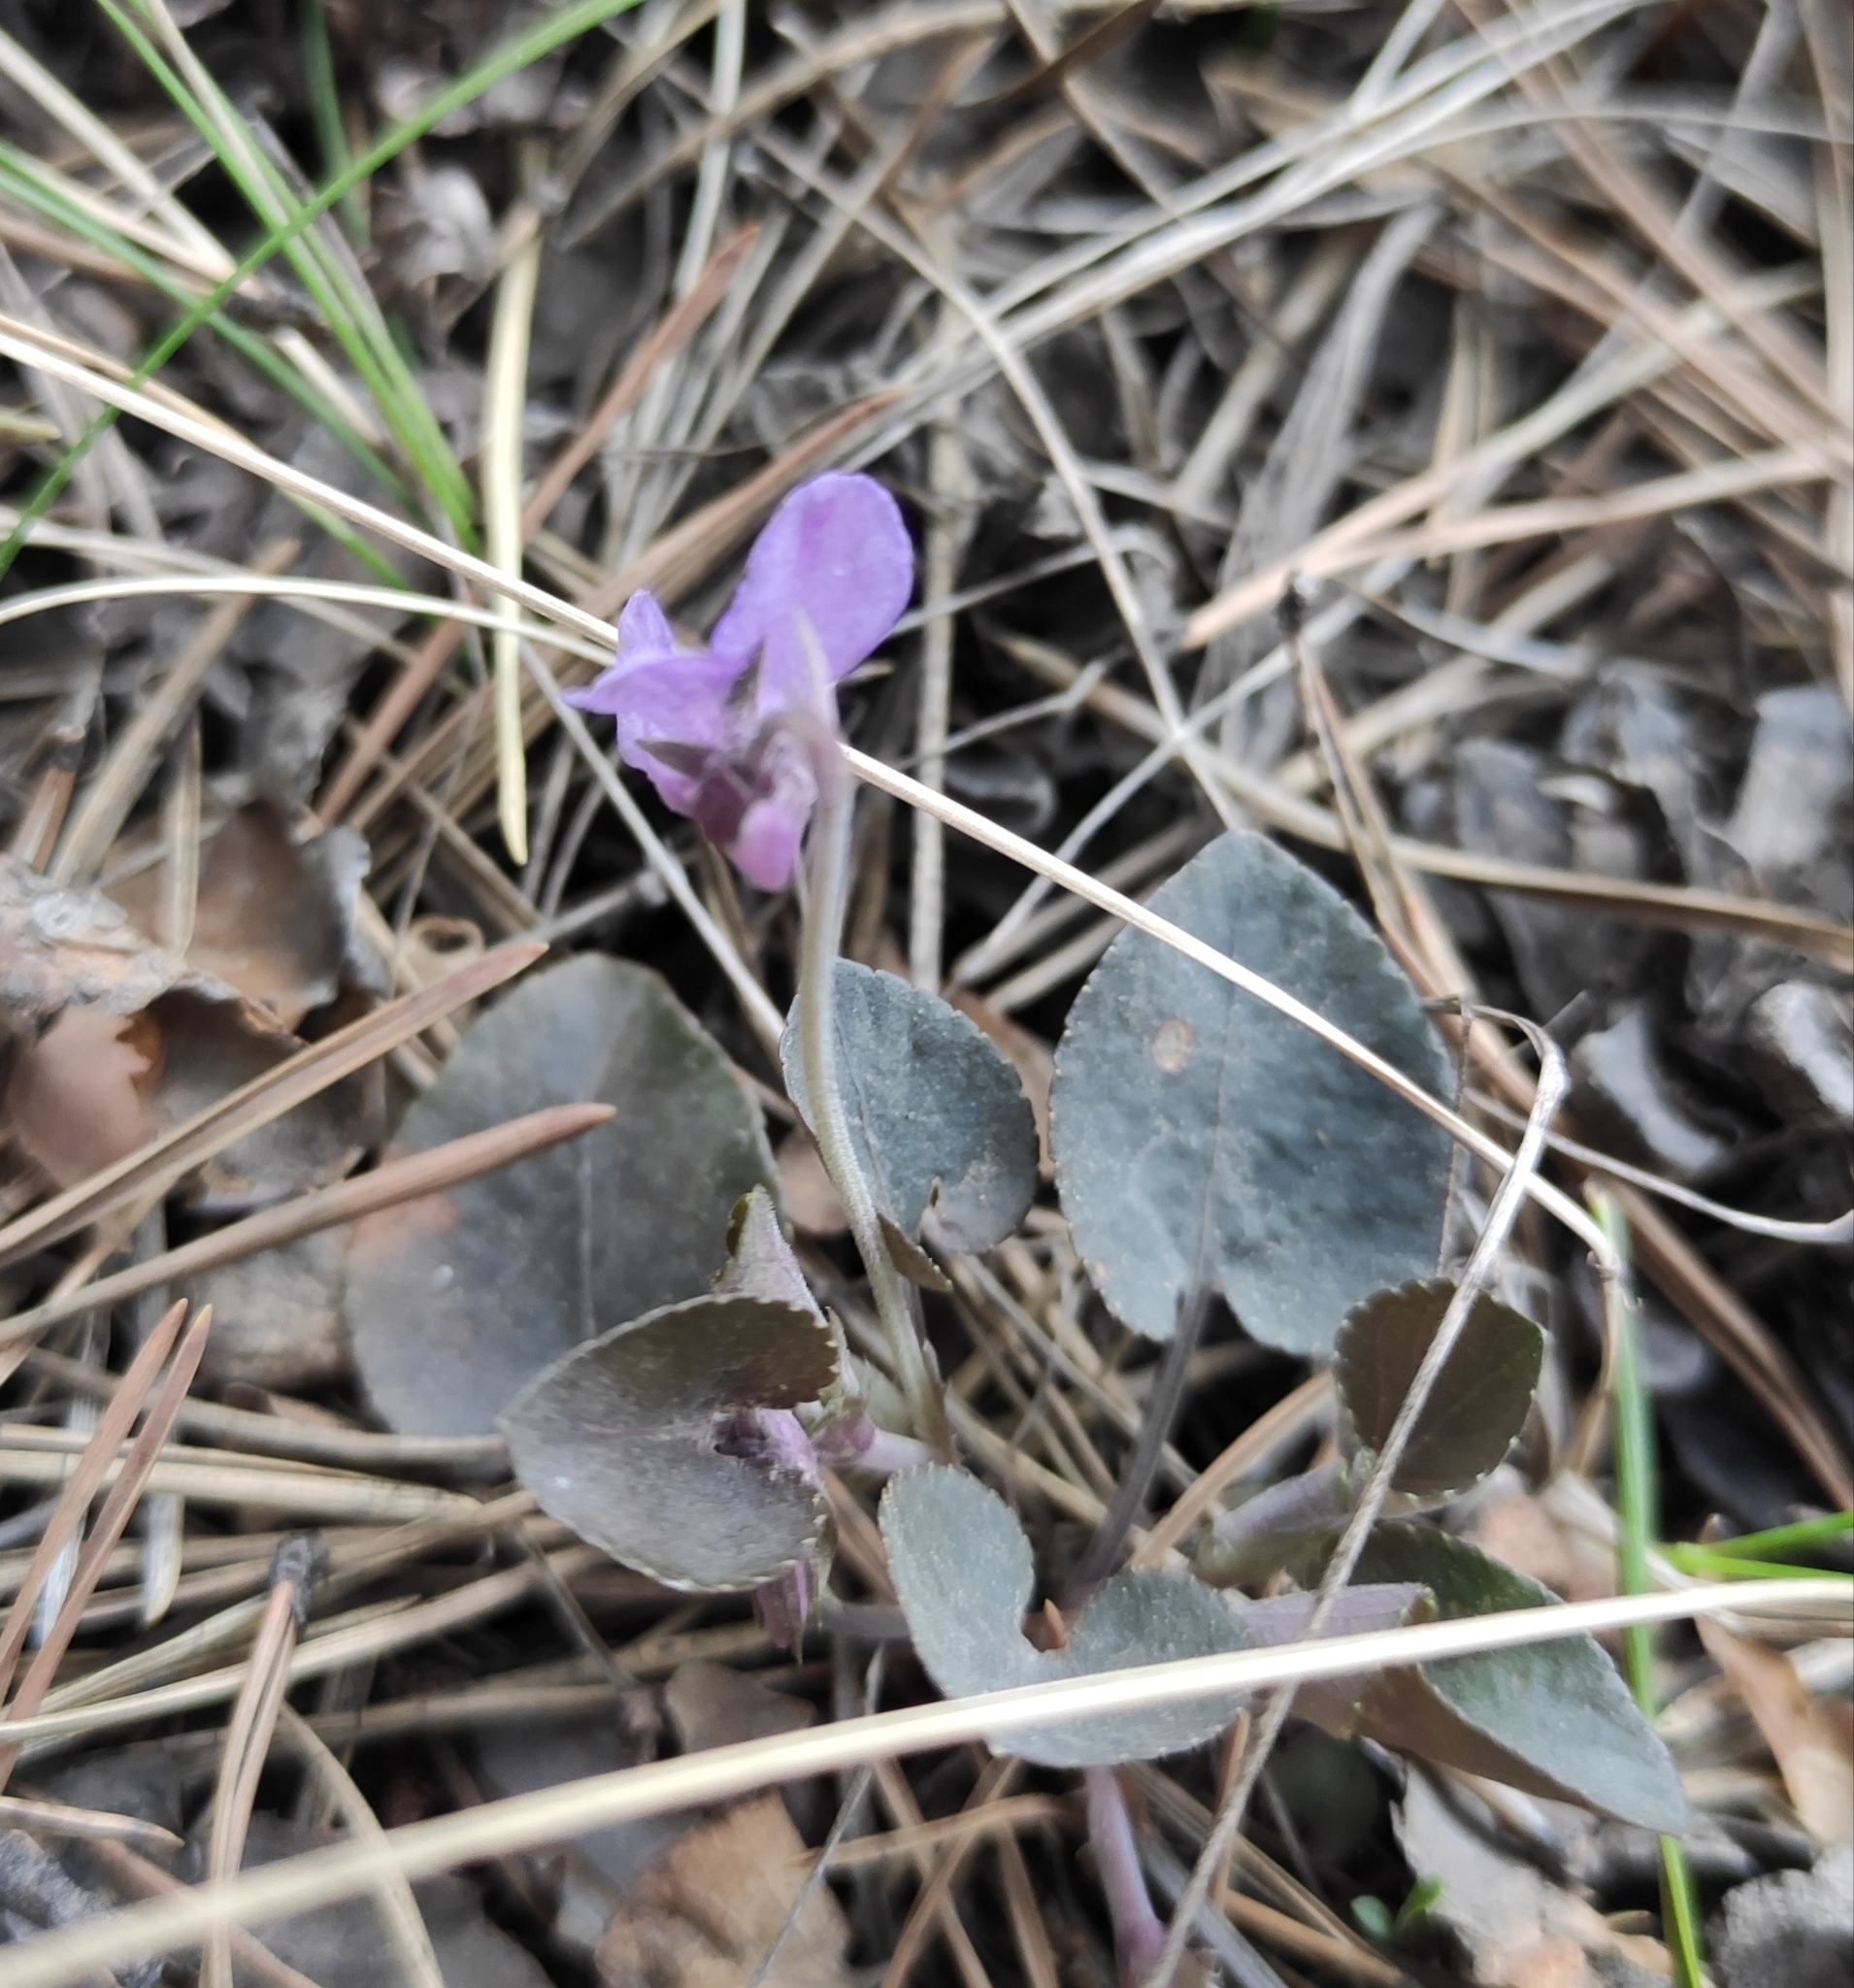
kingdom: Plantae
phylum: Tracheophyta
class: Magnoliopsida
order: Malpighiales
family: Violaceae
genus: Viola
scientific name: Viola rupestris
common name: Teesdale violet
